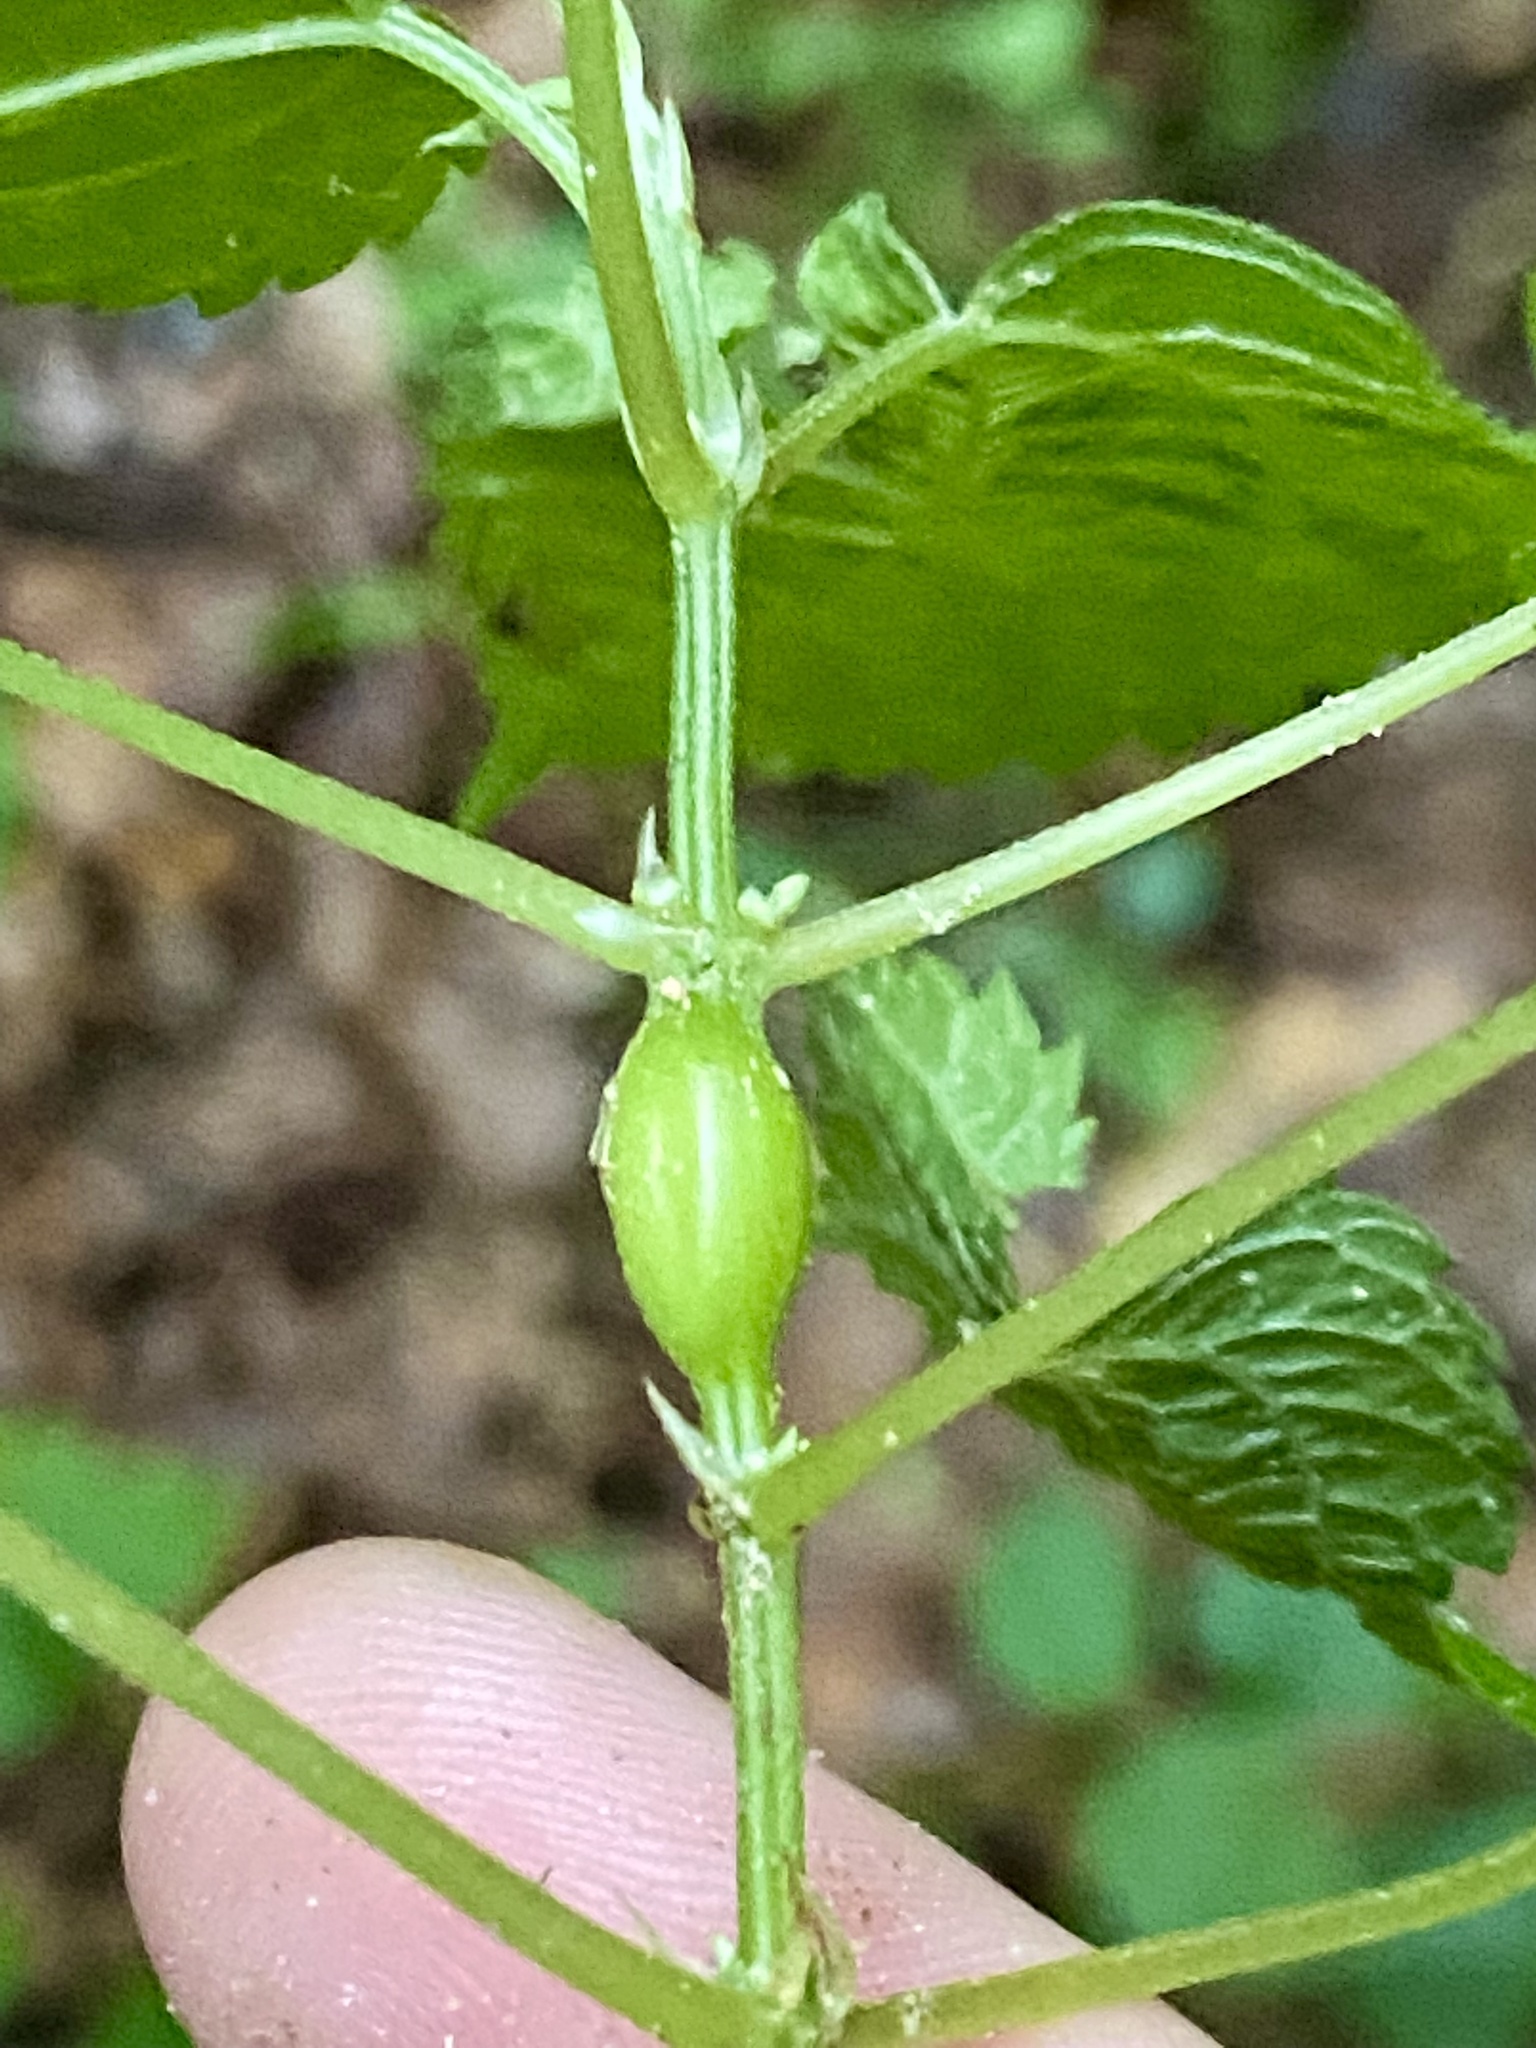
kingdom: Animalia
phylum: Arthropoda
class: Insecta
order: Diptera
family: Cecidomyiidae
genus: Neolasioptera
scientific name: Neolasioptera boehmeriae
